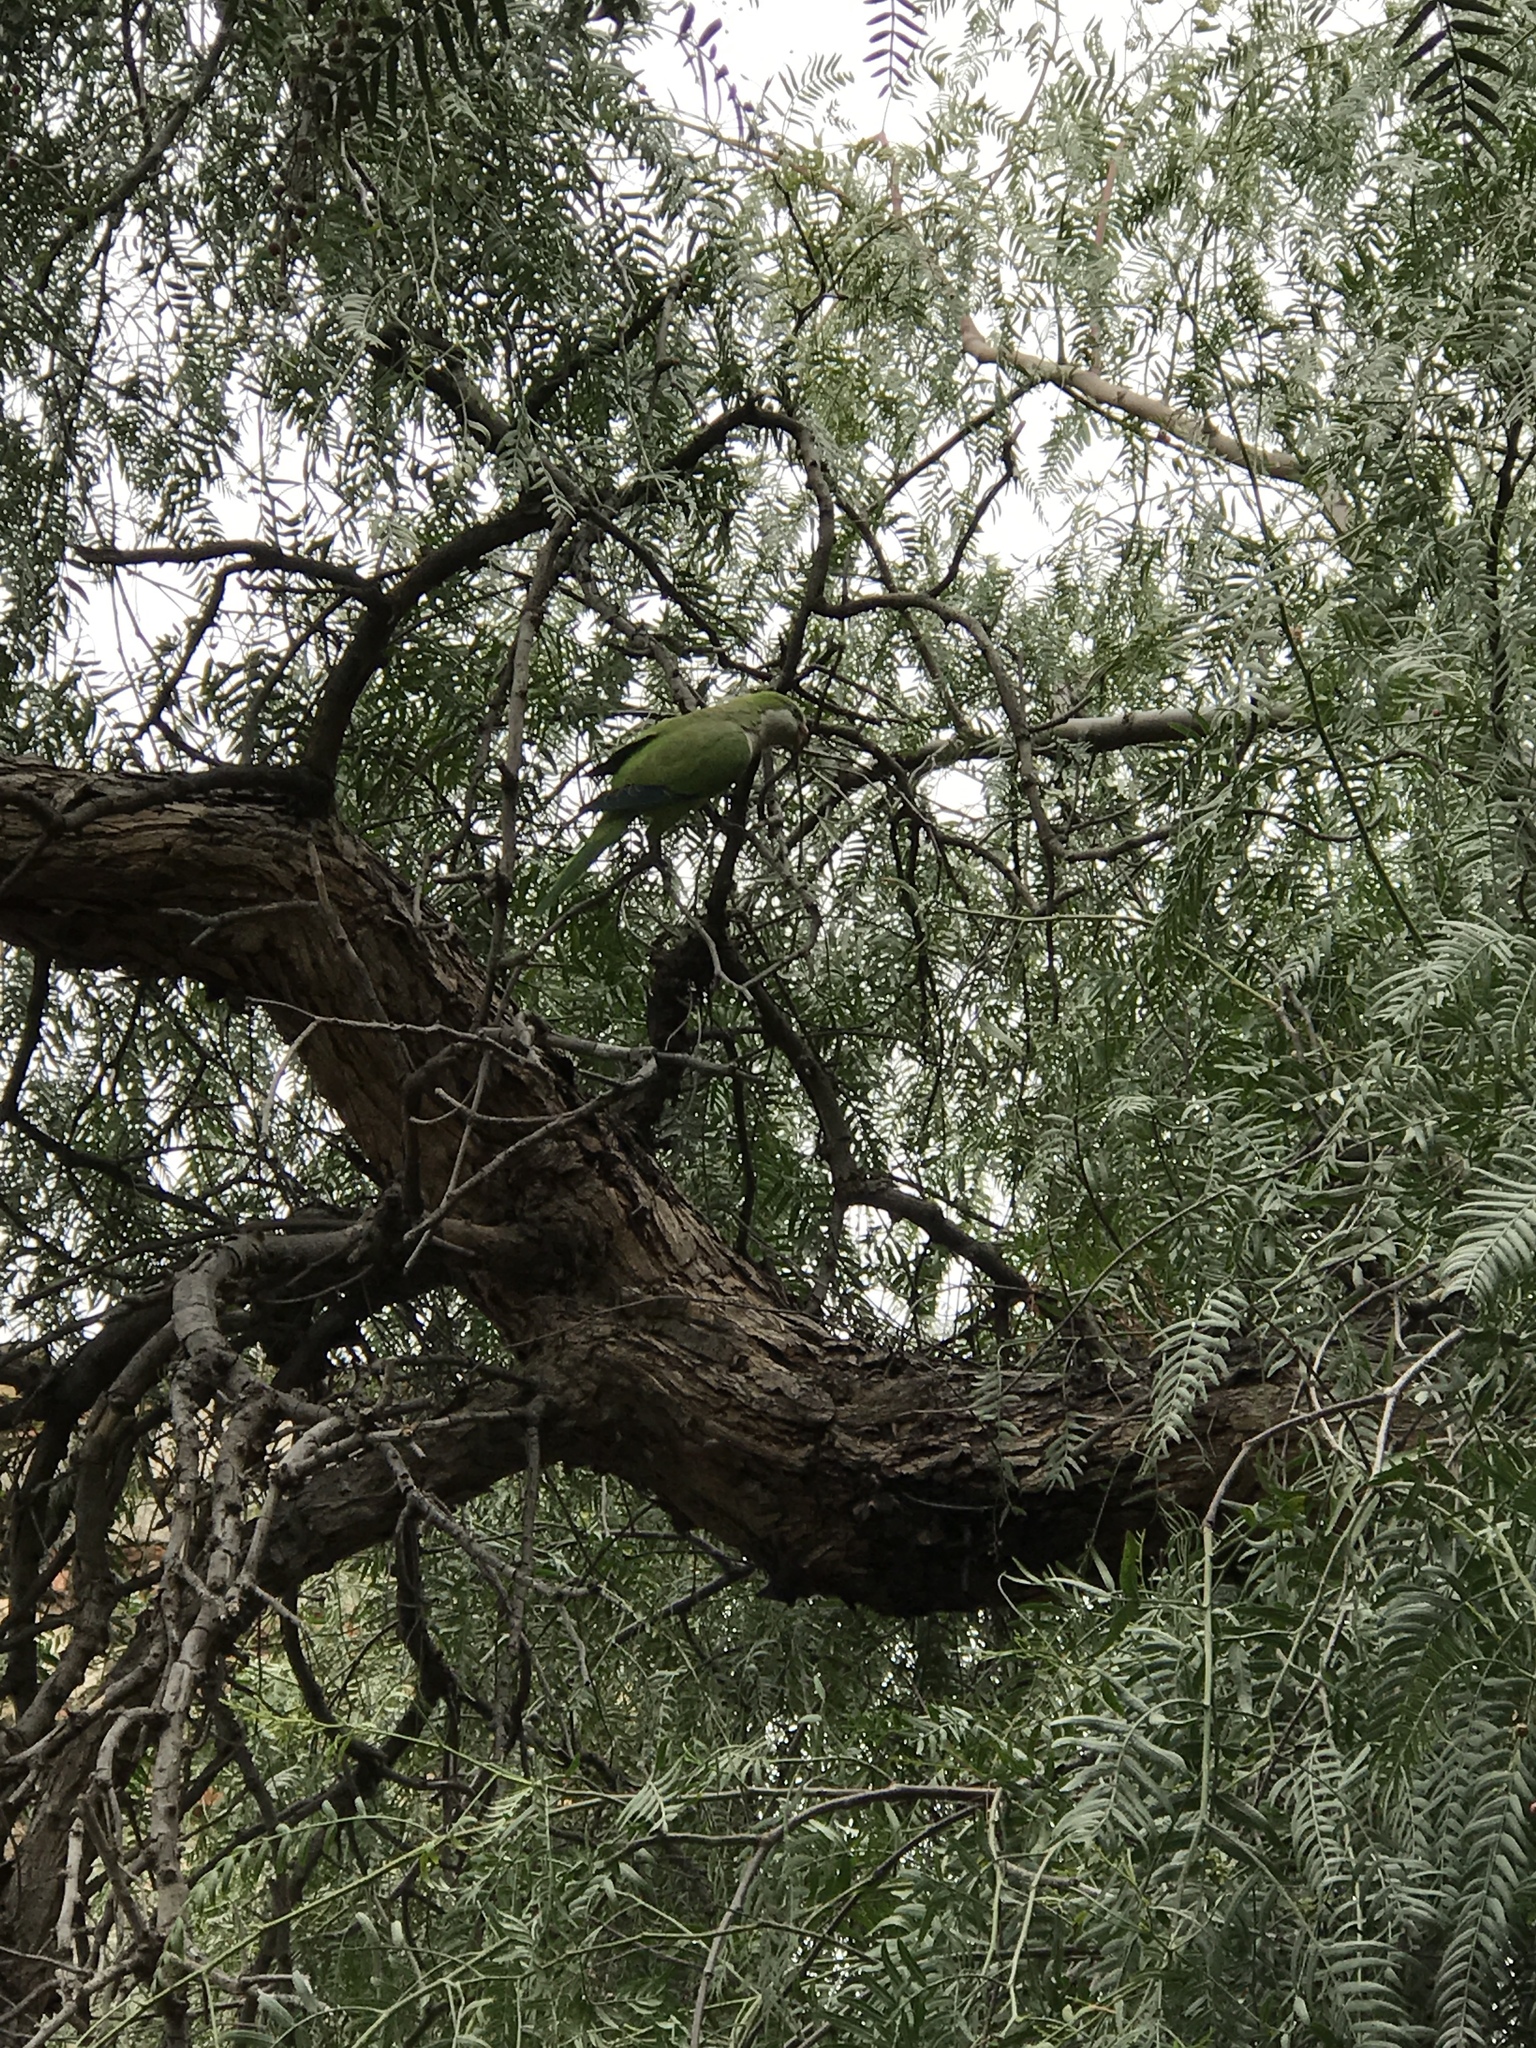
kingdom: Animalia
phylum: Chordata
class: Aves
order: Psittaciformes
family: Psittacidae
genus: Myiopsitta
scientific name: Myiopsitta monachus
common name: Monk parakeet
